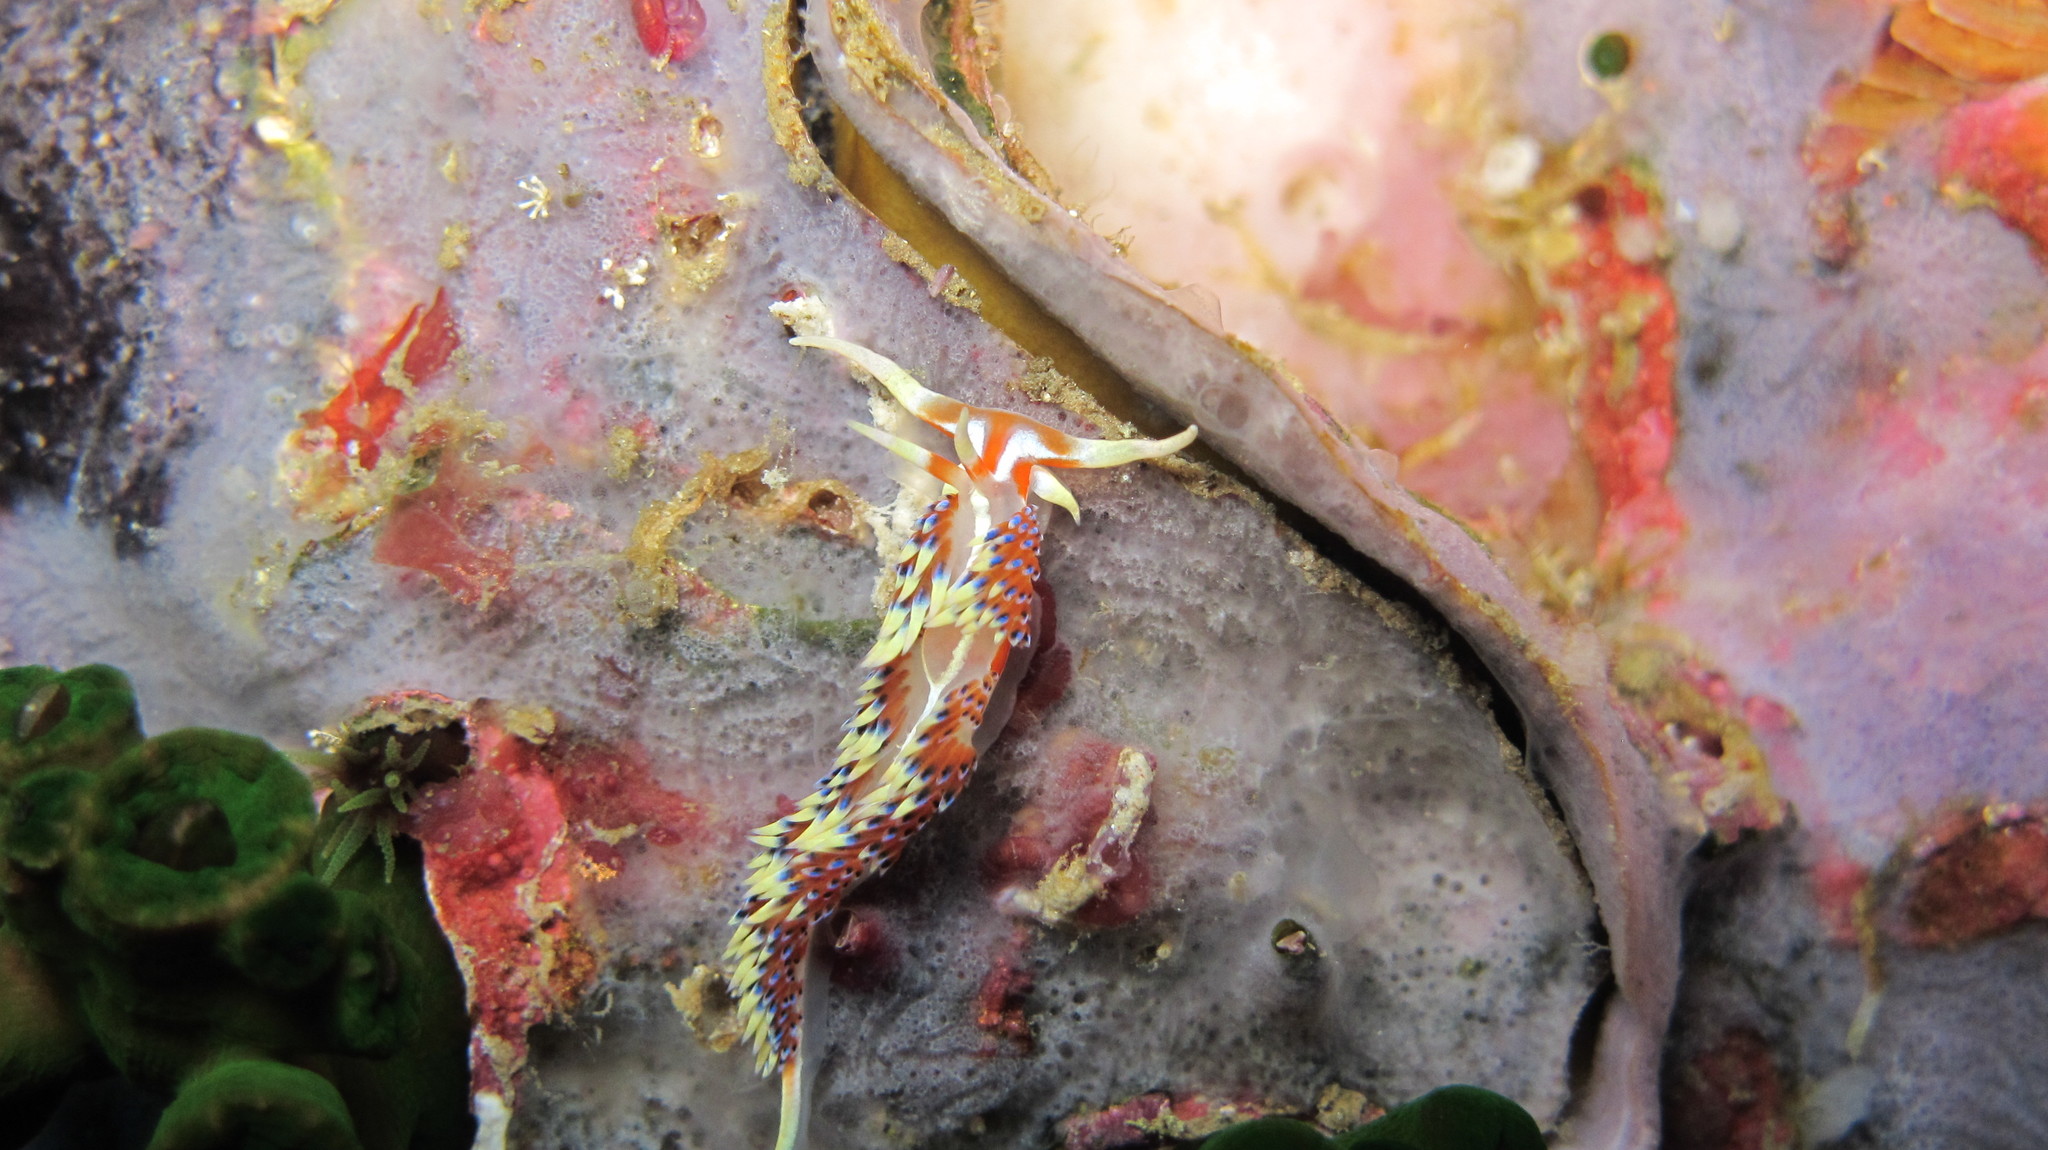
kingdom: Animalia
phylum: Mollusca
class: Gastropoda
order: Nudibranchia
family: Facelinidae
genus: Caloria
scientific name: Caloria indica
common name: Sea slug
